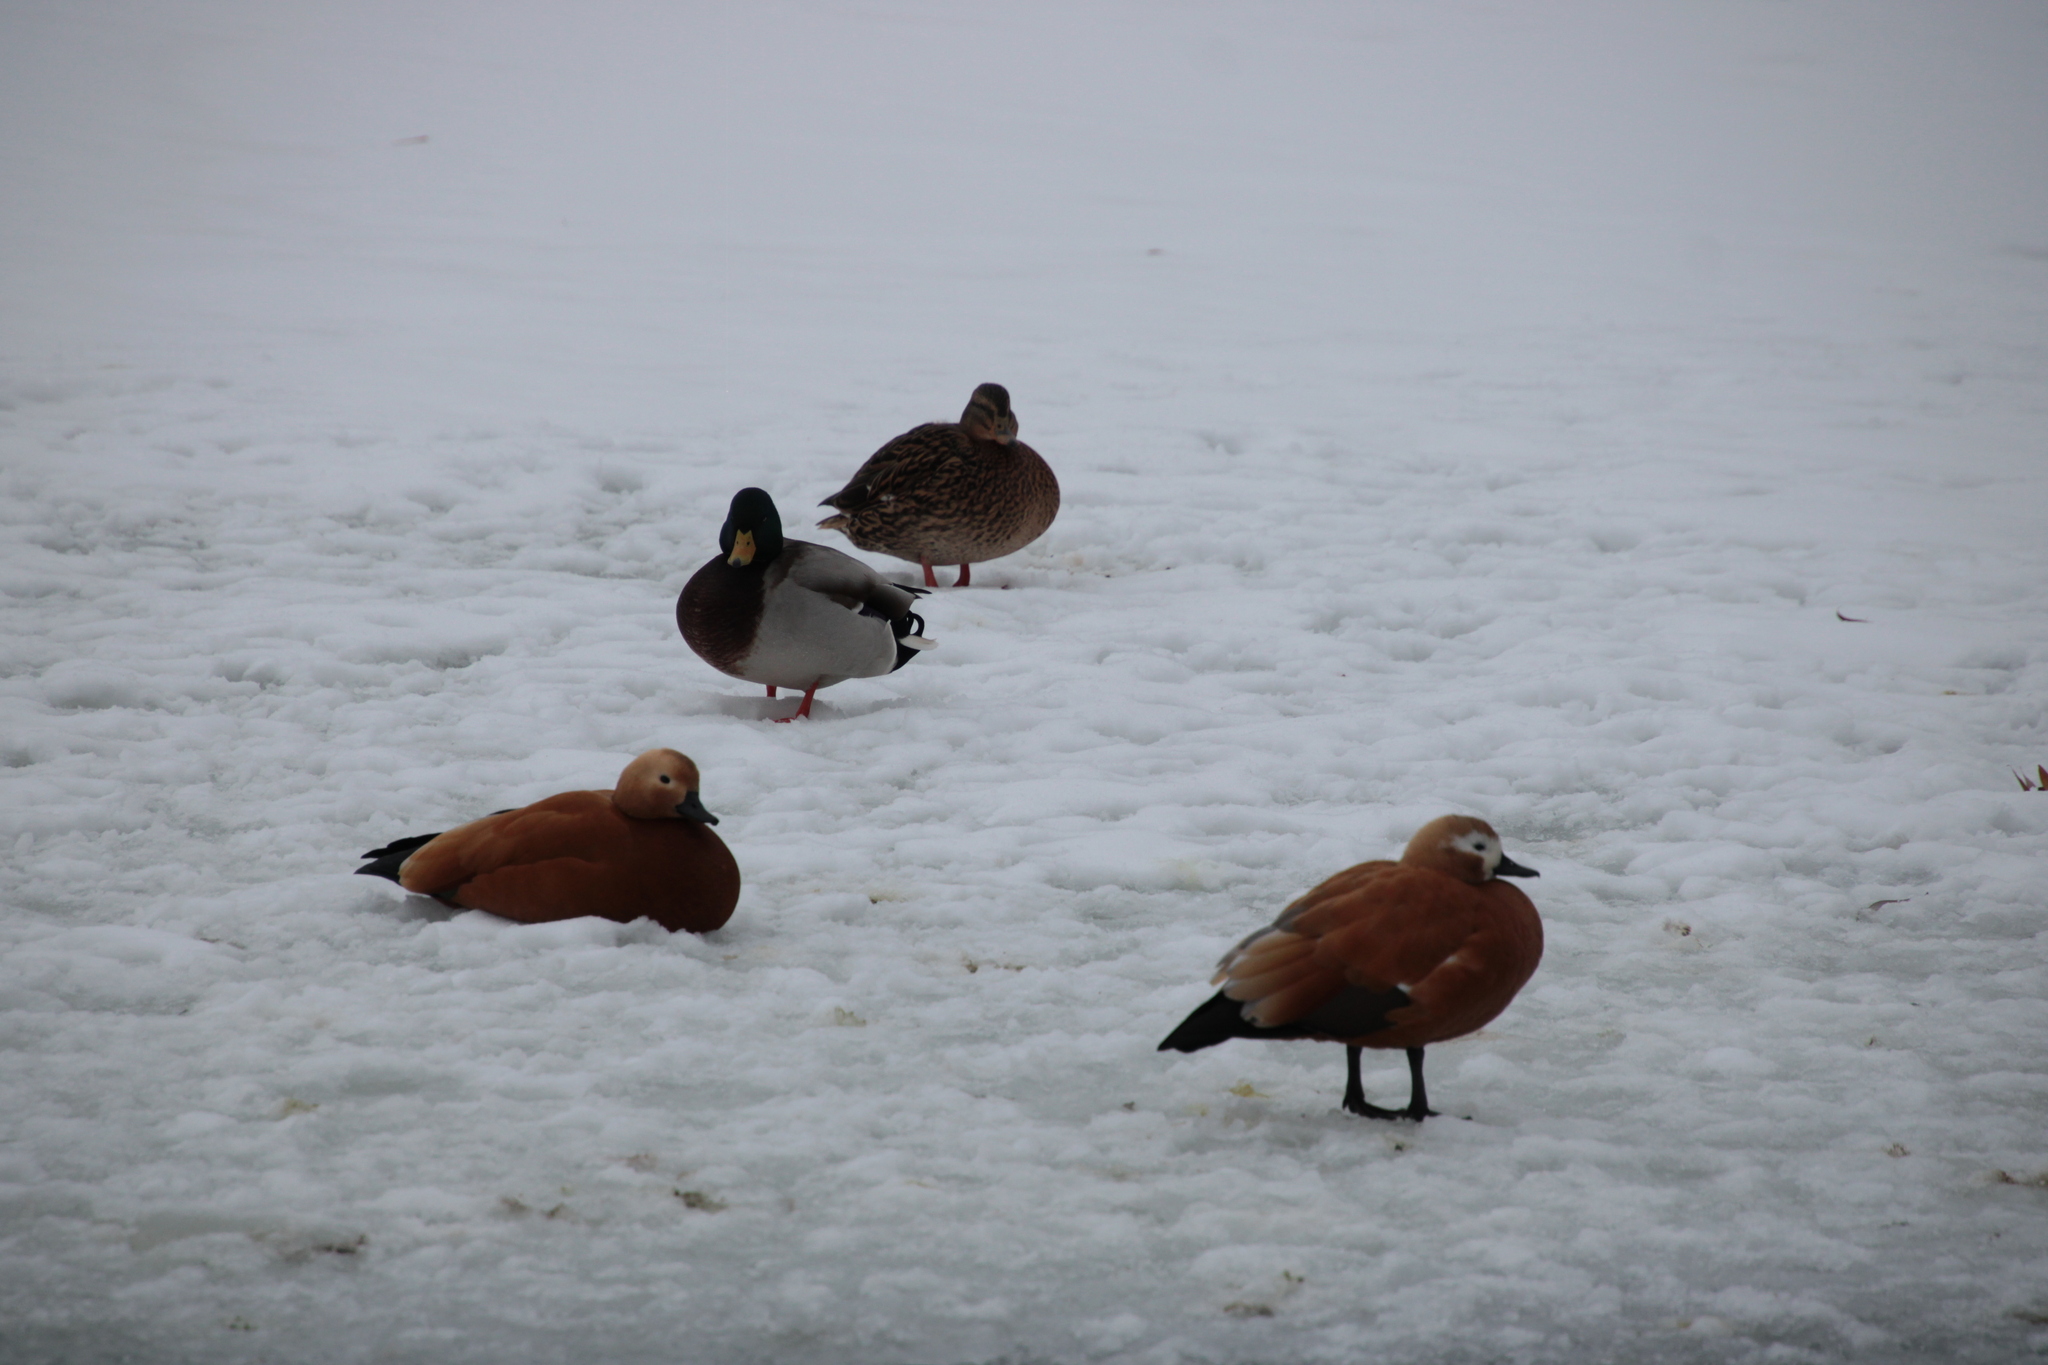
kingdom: Animalia
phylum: Chordata
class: Aves
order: Anseriformes
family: Anatidae
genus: Tadorna
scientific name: Tadorna ferruginea
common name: Ruddy shelduck
